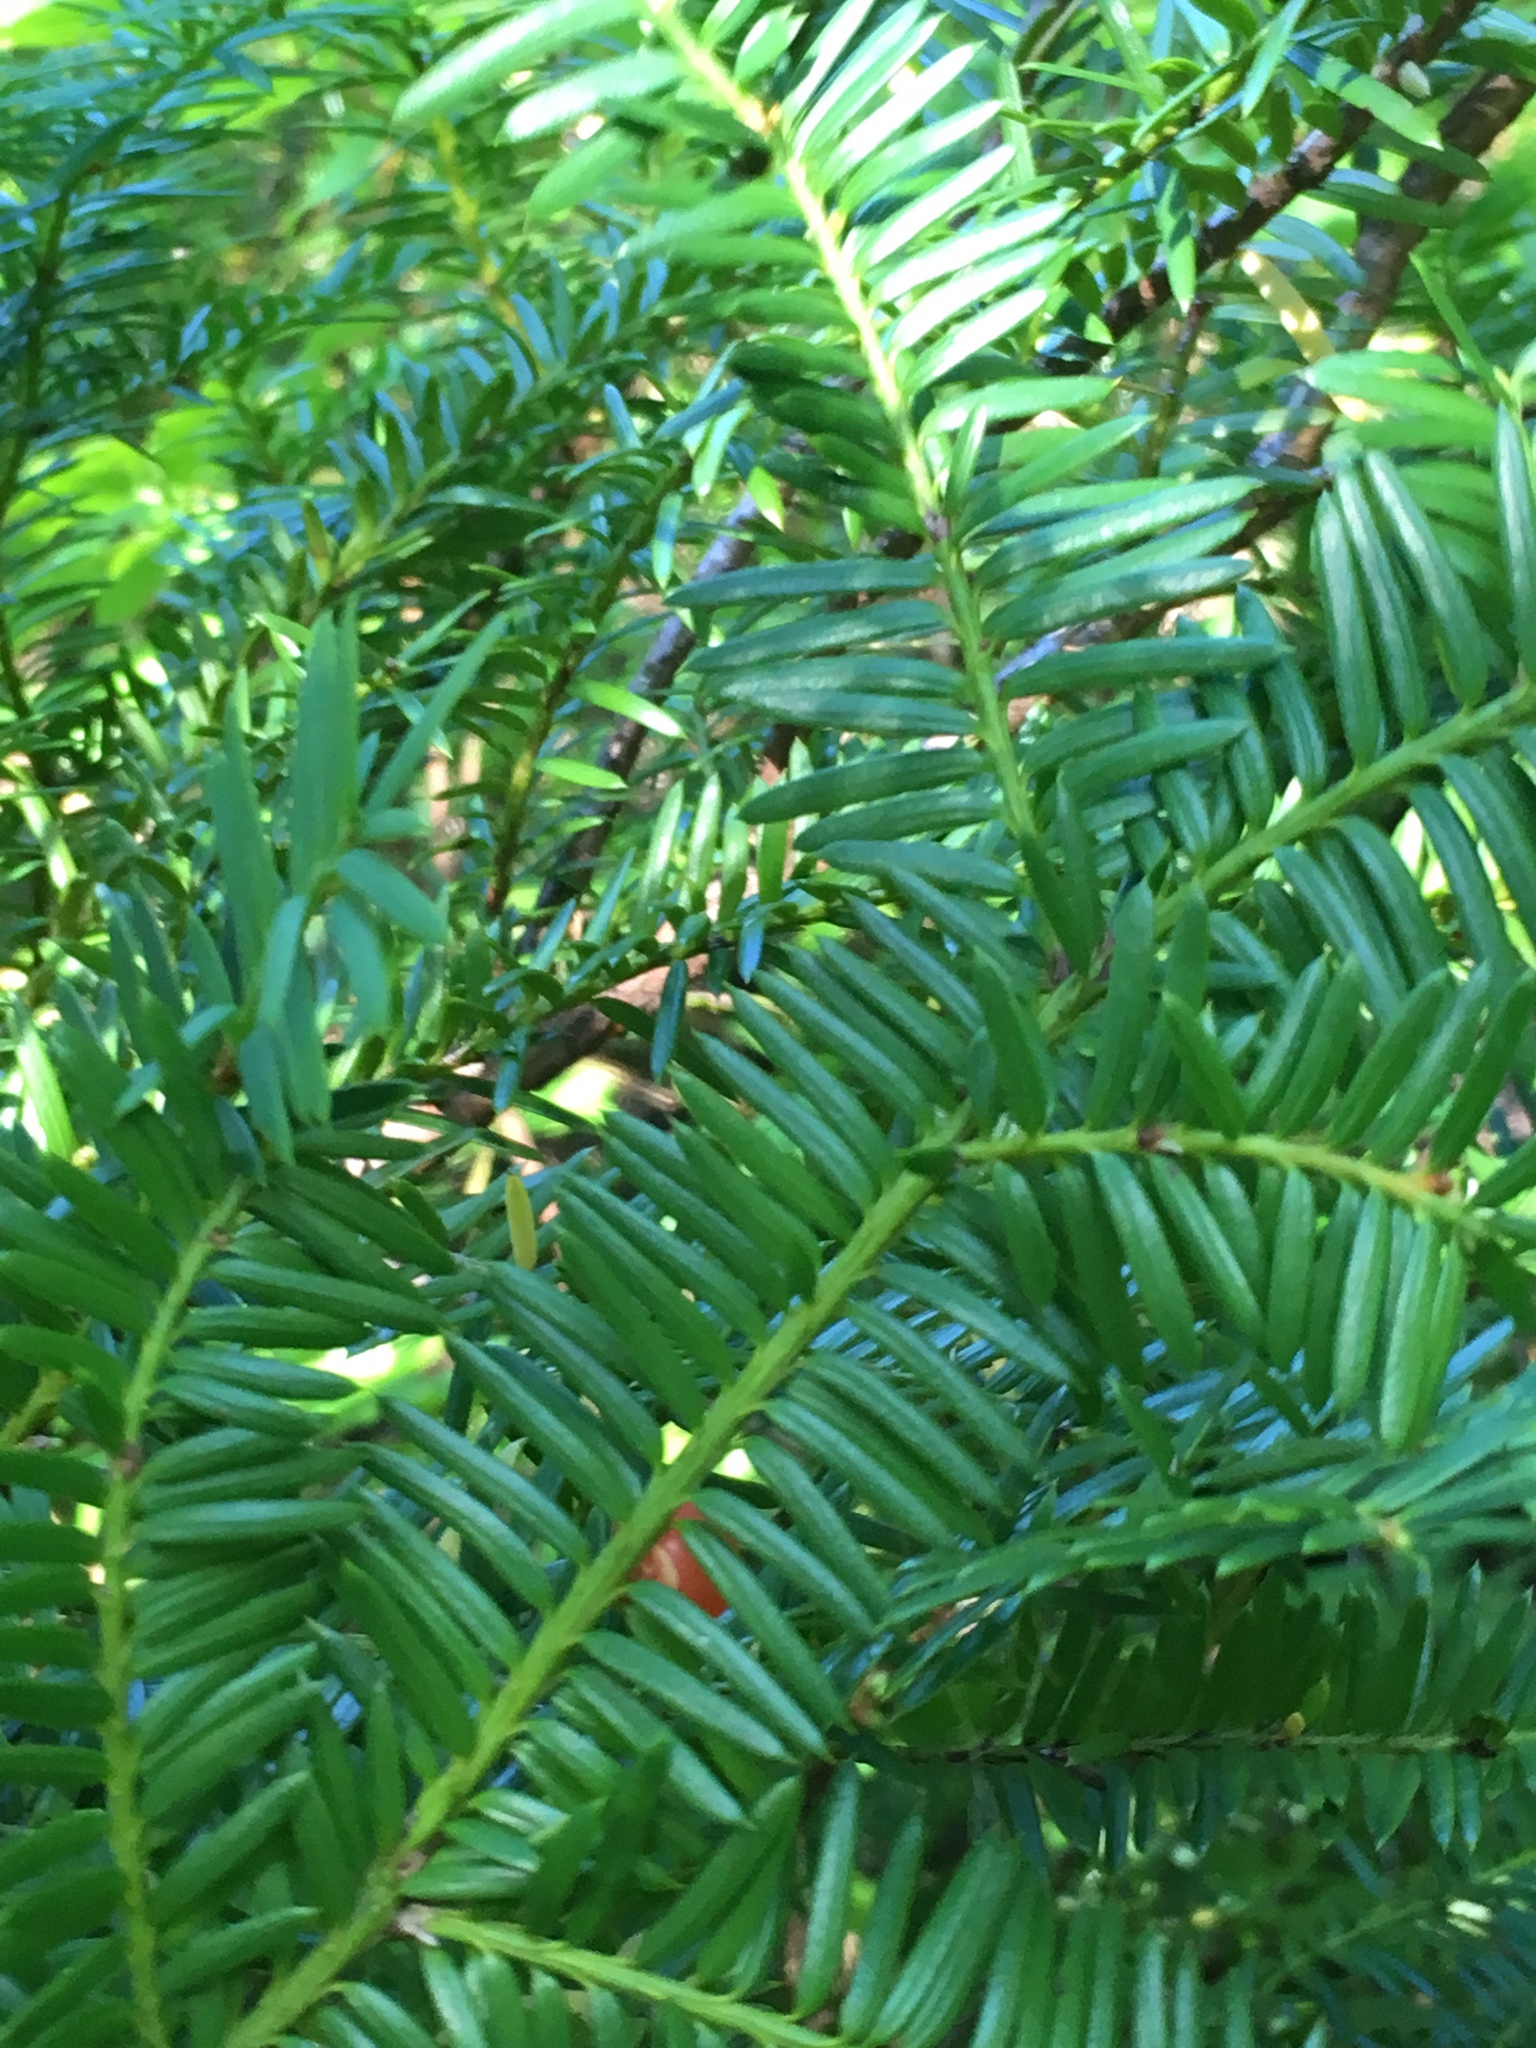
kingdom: Plantae
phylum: Tracheophyta
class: Pinopsida
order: Pinales
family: Taxaceae
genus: Taxus
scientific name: Taxus brevifolia
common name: Pacific yew
